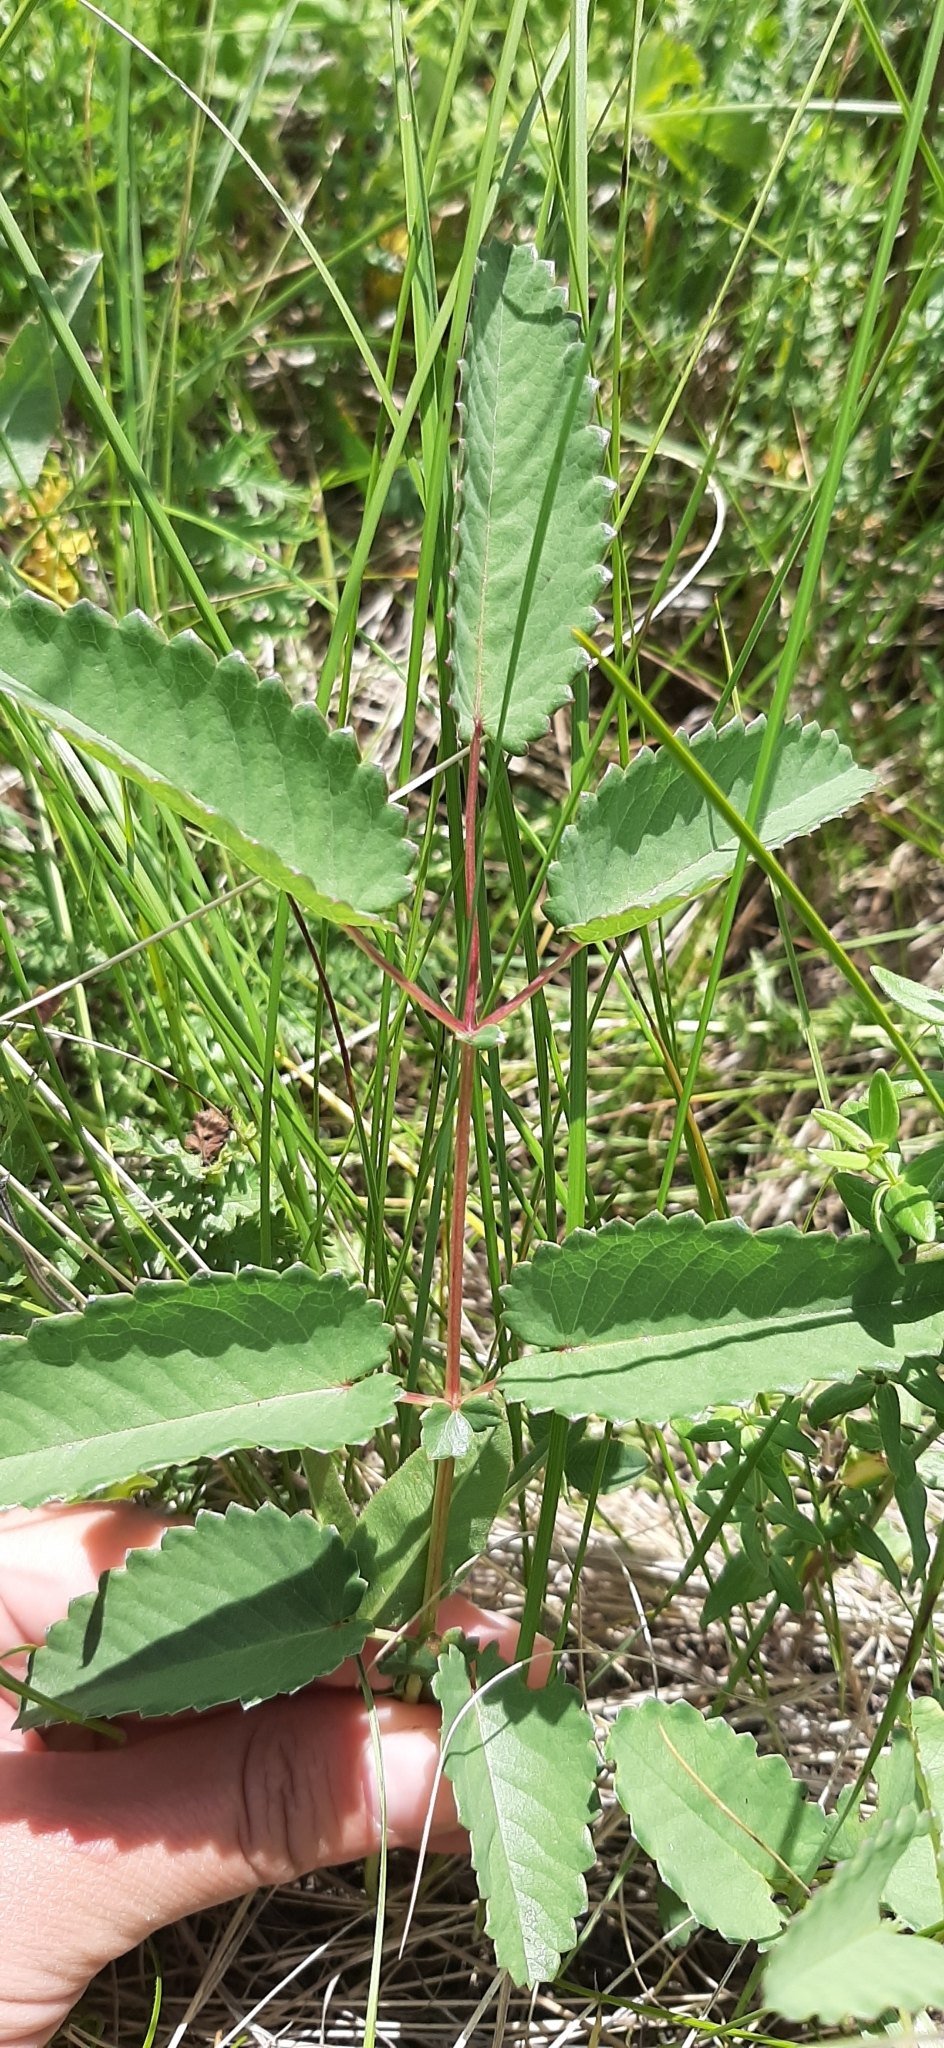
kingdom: Plantae
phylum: Tracheophyta
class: Magnoliopsida
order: Rosales
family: Rosaceae
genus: Sanguisorba
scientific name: Sanguisorba officinalis
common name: Great burnet
